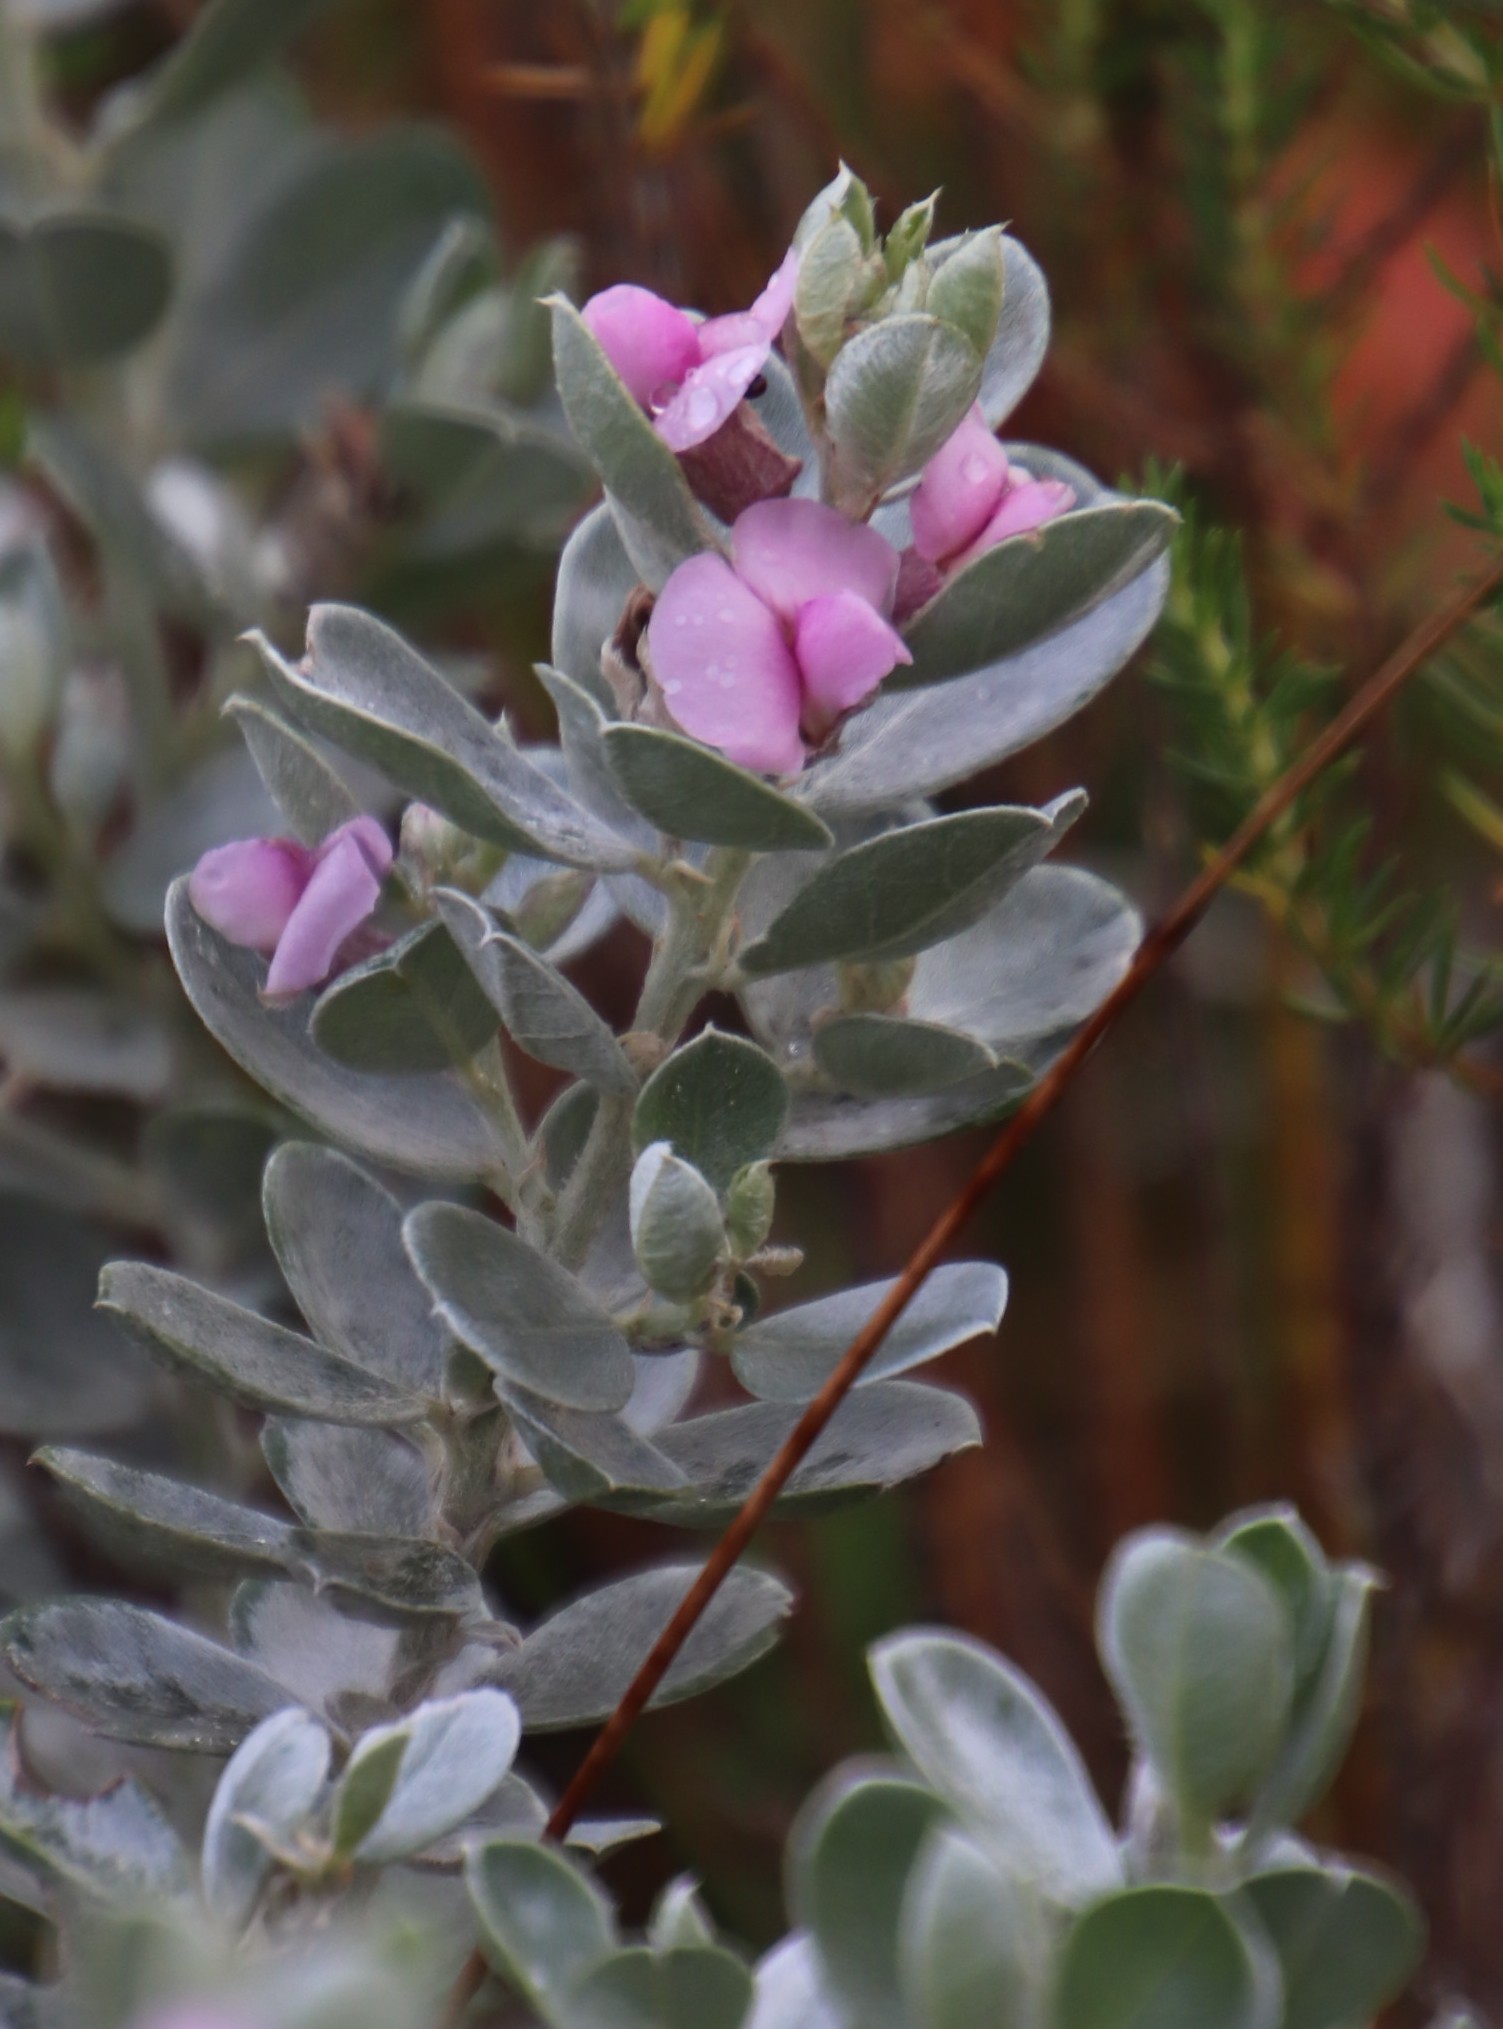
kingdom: Plantae
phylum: Tracheophyta
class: Magnoliopsida
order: Fabales
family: Fabaceae
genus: Podalyria
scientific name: Podalyria sericea
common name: Silver podalyria
